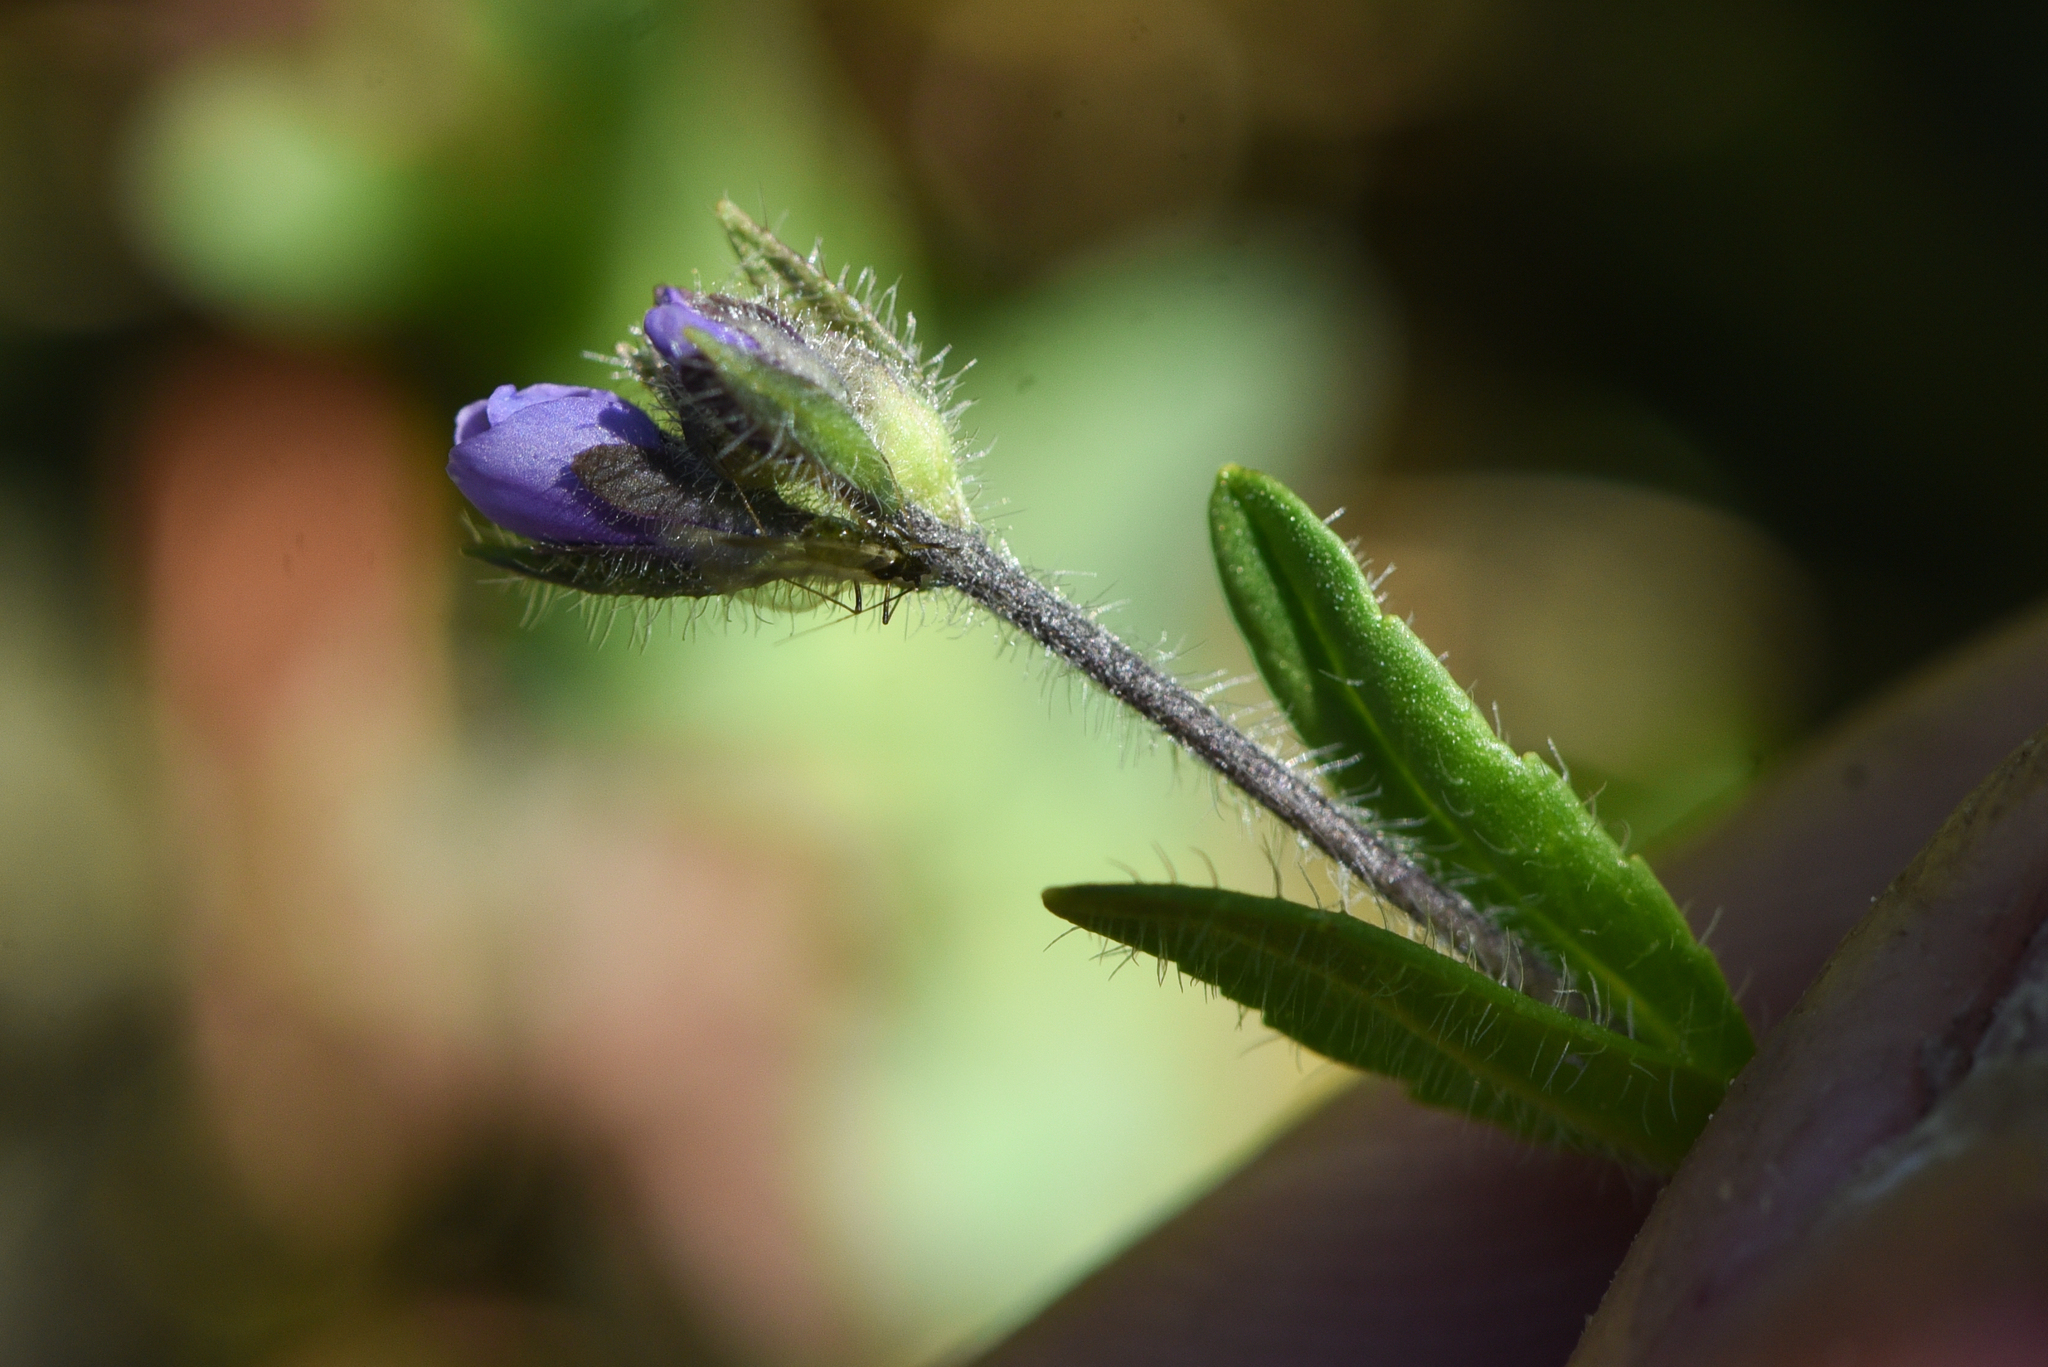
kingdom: Plantae
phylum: Tracheophyta
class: Magnoliopsida
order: Lamiales
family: Plantaginaceae
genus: Veronica
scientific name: Veronica wormskjoldii
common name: American alpine speedwell
